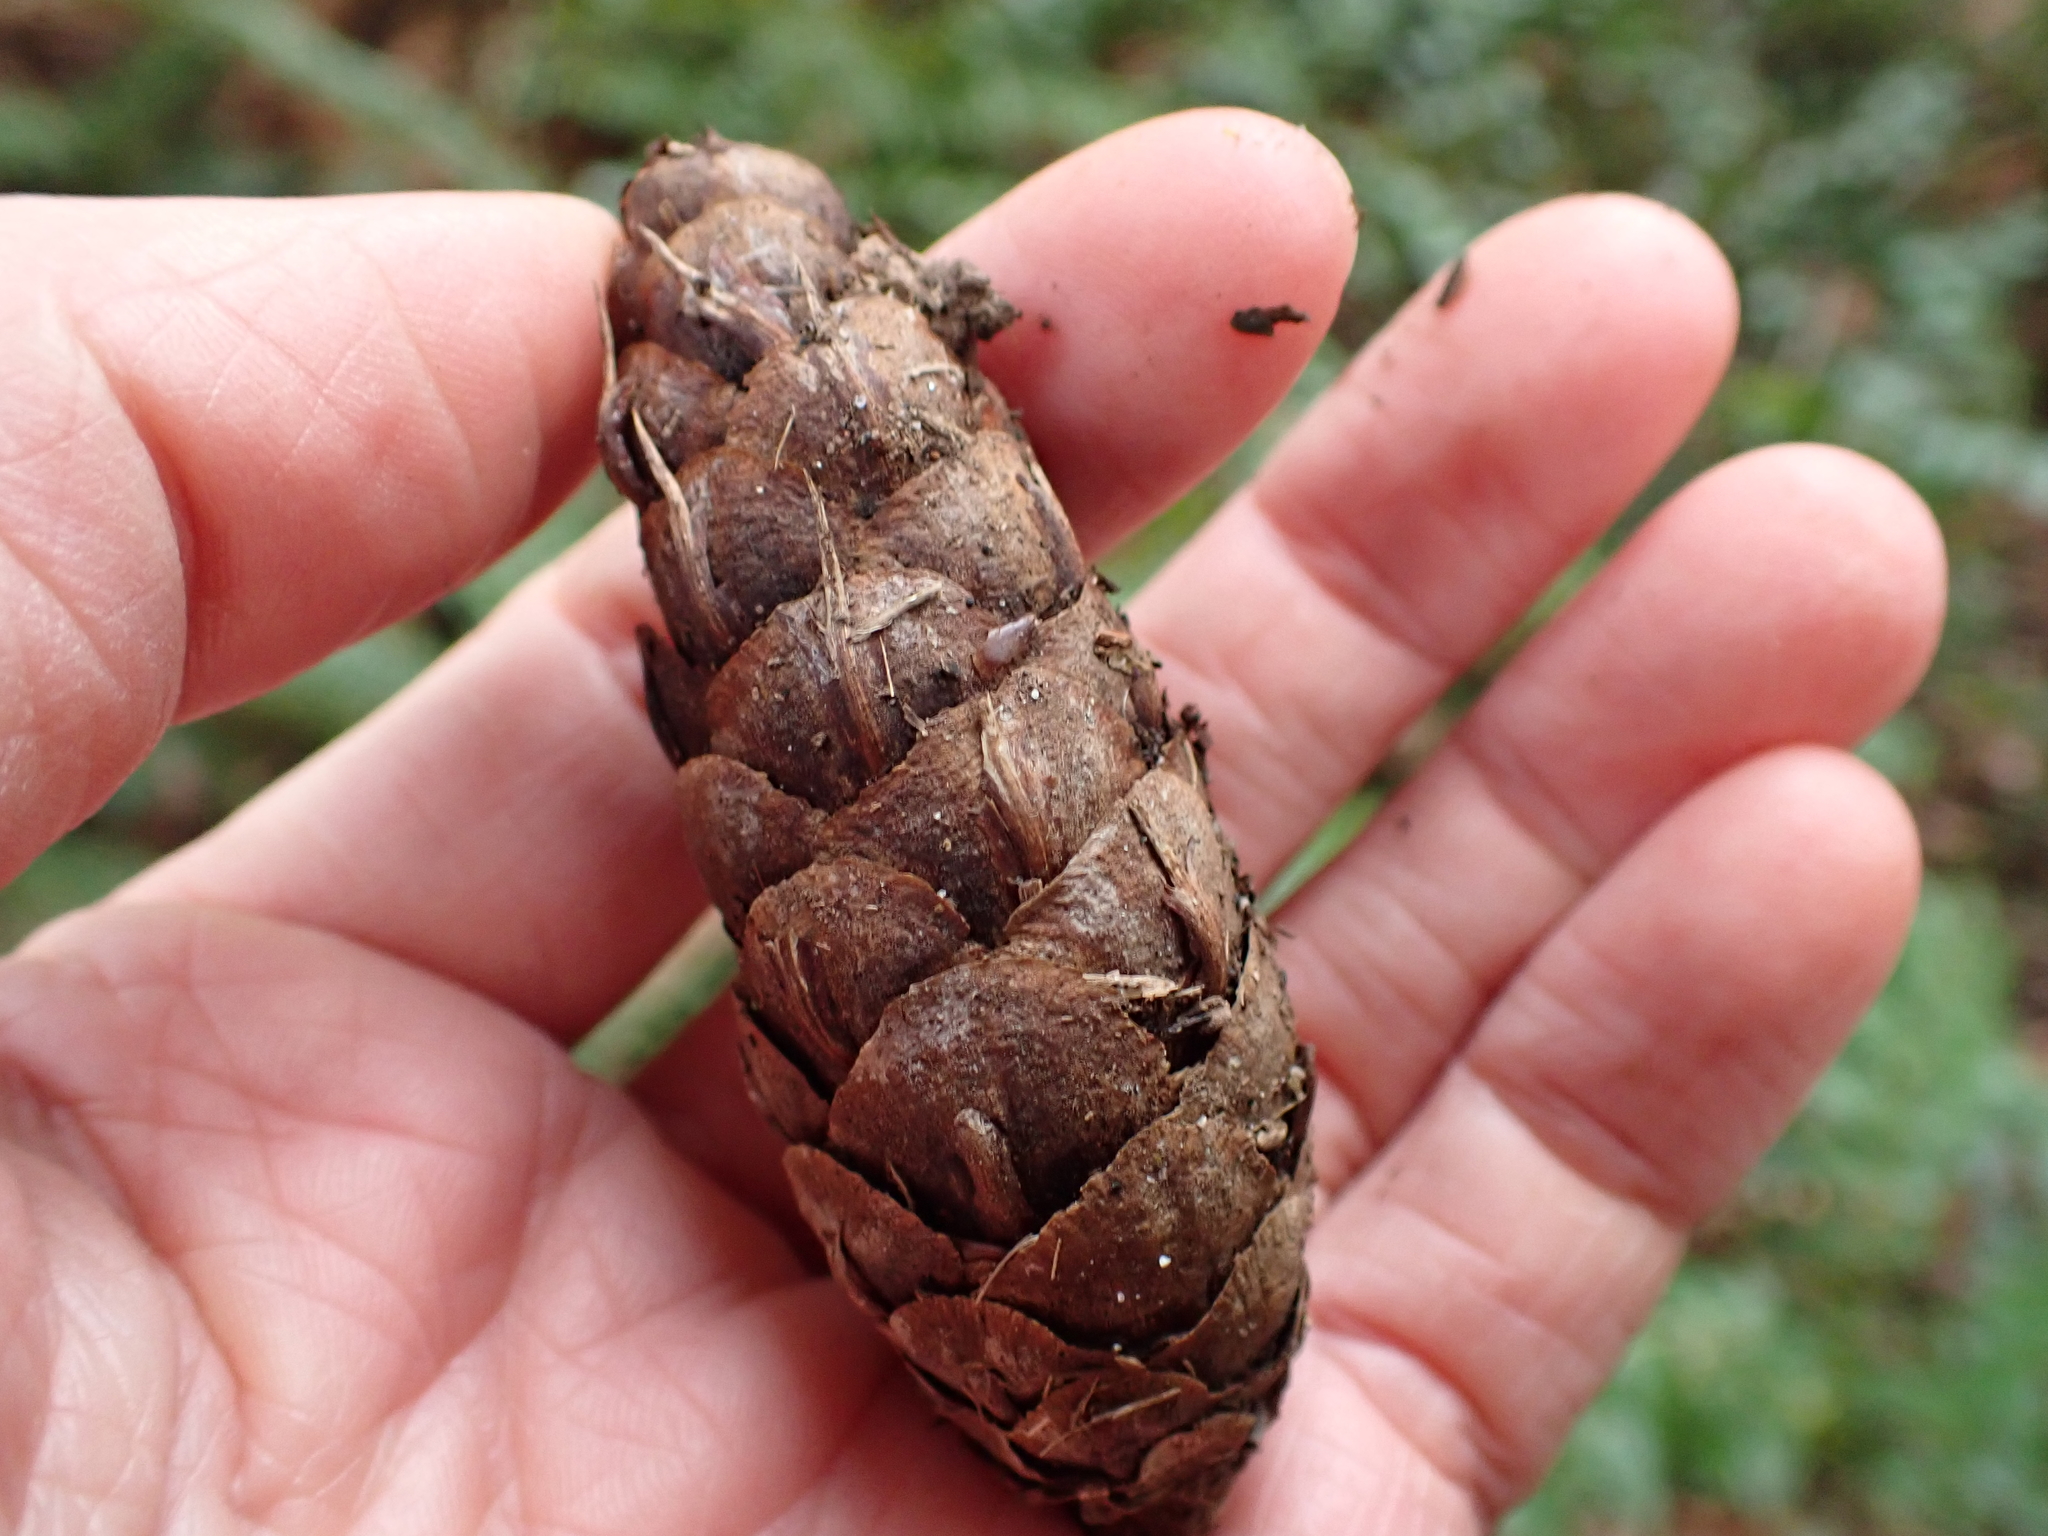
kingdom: Plantae
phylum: Tracheophyta
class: Pinopsida
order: Pinales
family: Pinaceae
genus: Pseudotsuga
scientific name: Pseudotsuga menziesii
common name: Douglas fir
